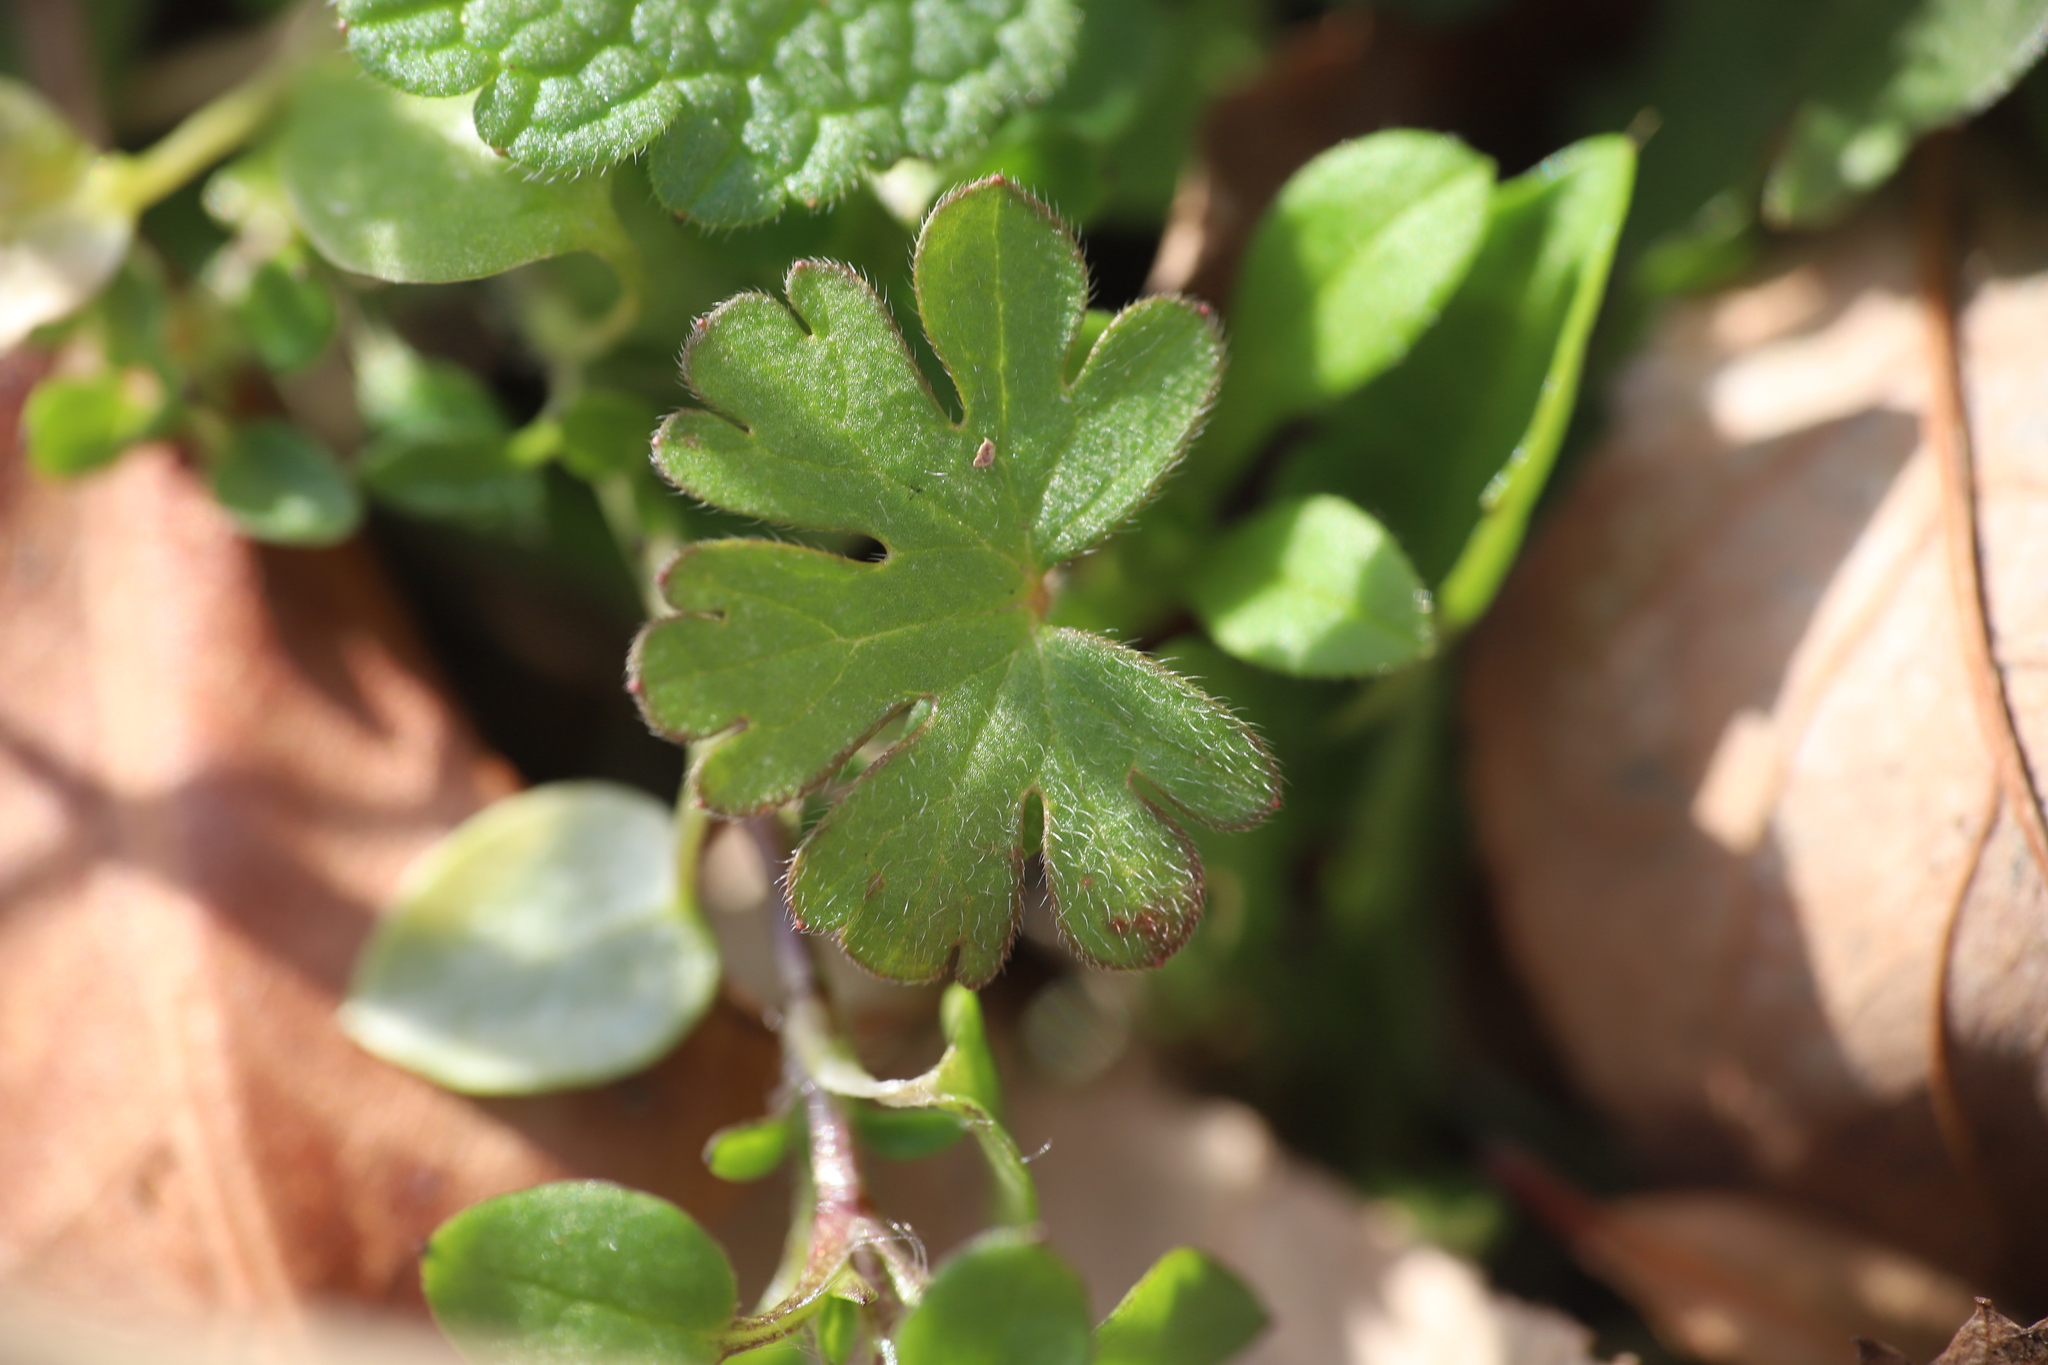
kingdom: Plantae
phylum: Tracheophyta
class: Magnoliopsida
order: Geraniales
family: Geraniaceae
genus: Geranium
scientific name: Geranium carolinianum
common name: Carolina crane's-bill
